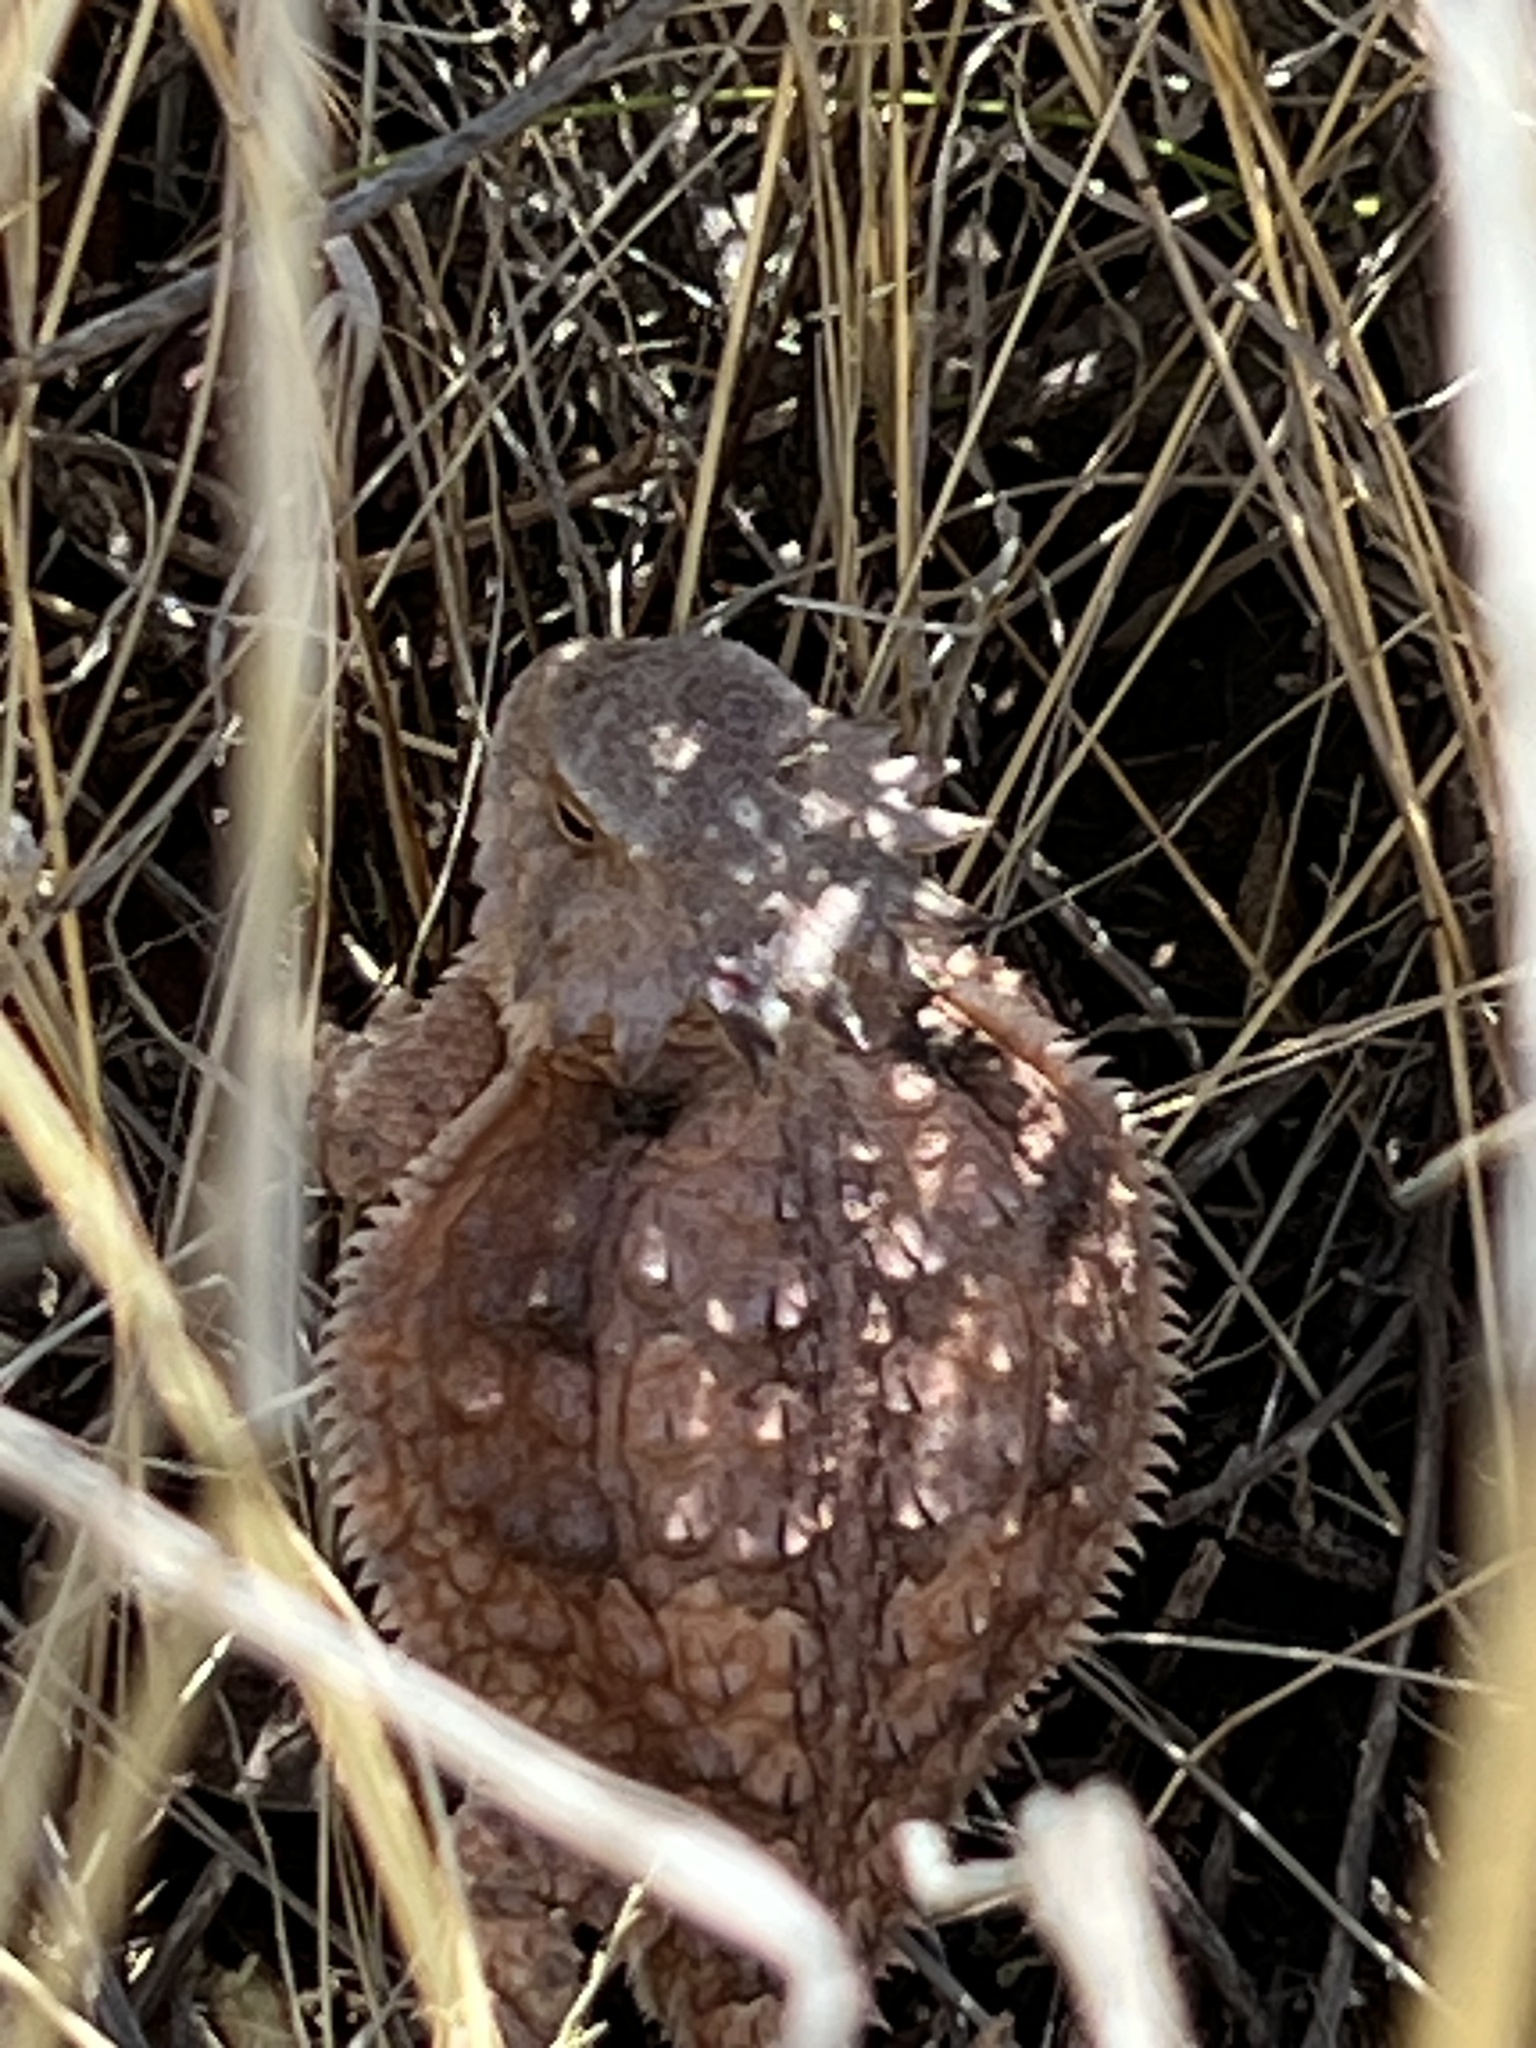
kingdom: Animalia
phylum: Chordata
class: Squamata
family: Phrynosomatidae
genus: Phrynosoma
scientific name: Phrynosoma solare
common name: Regal horned lizard
